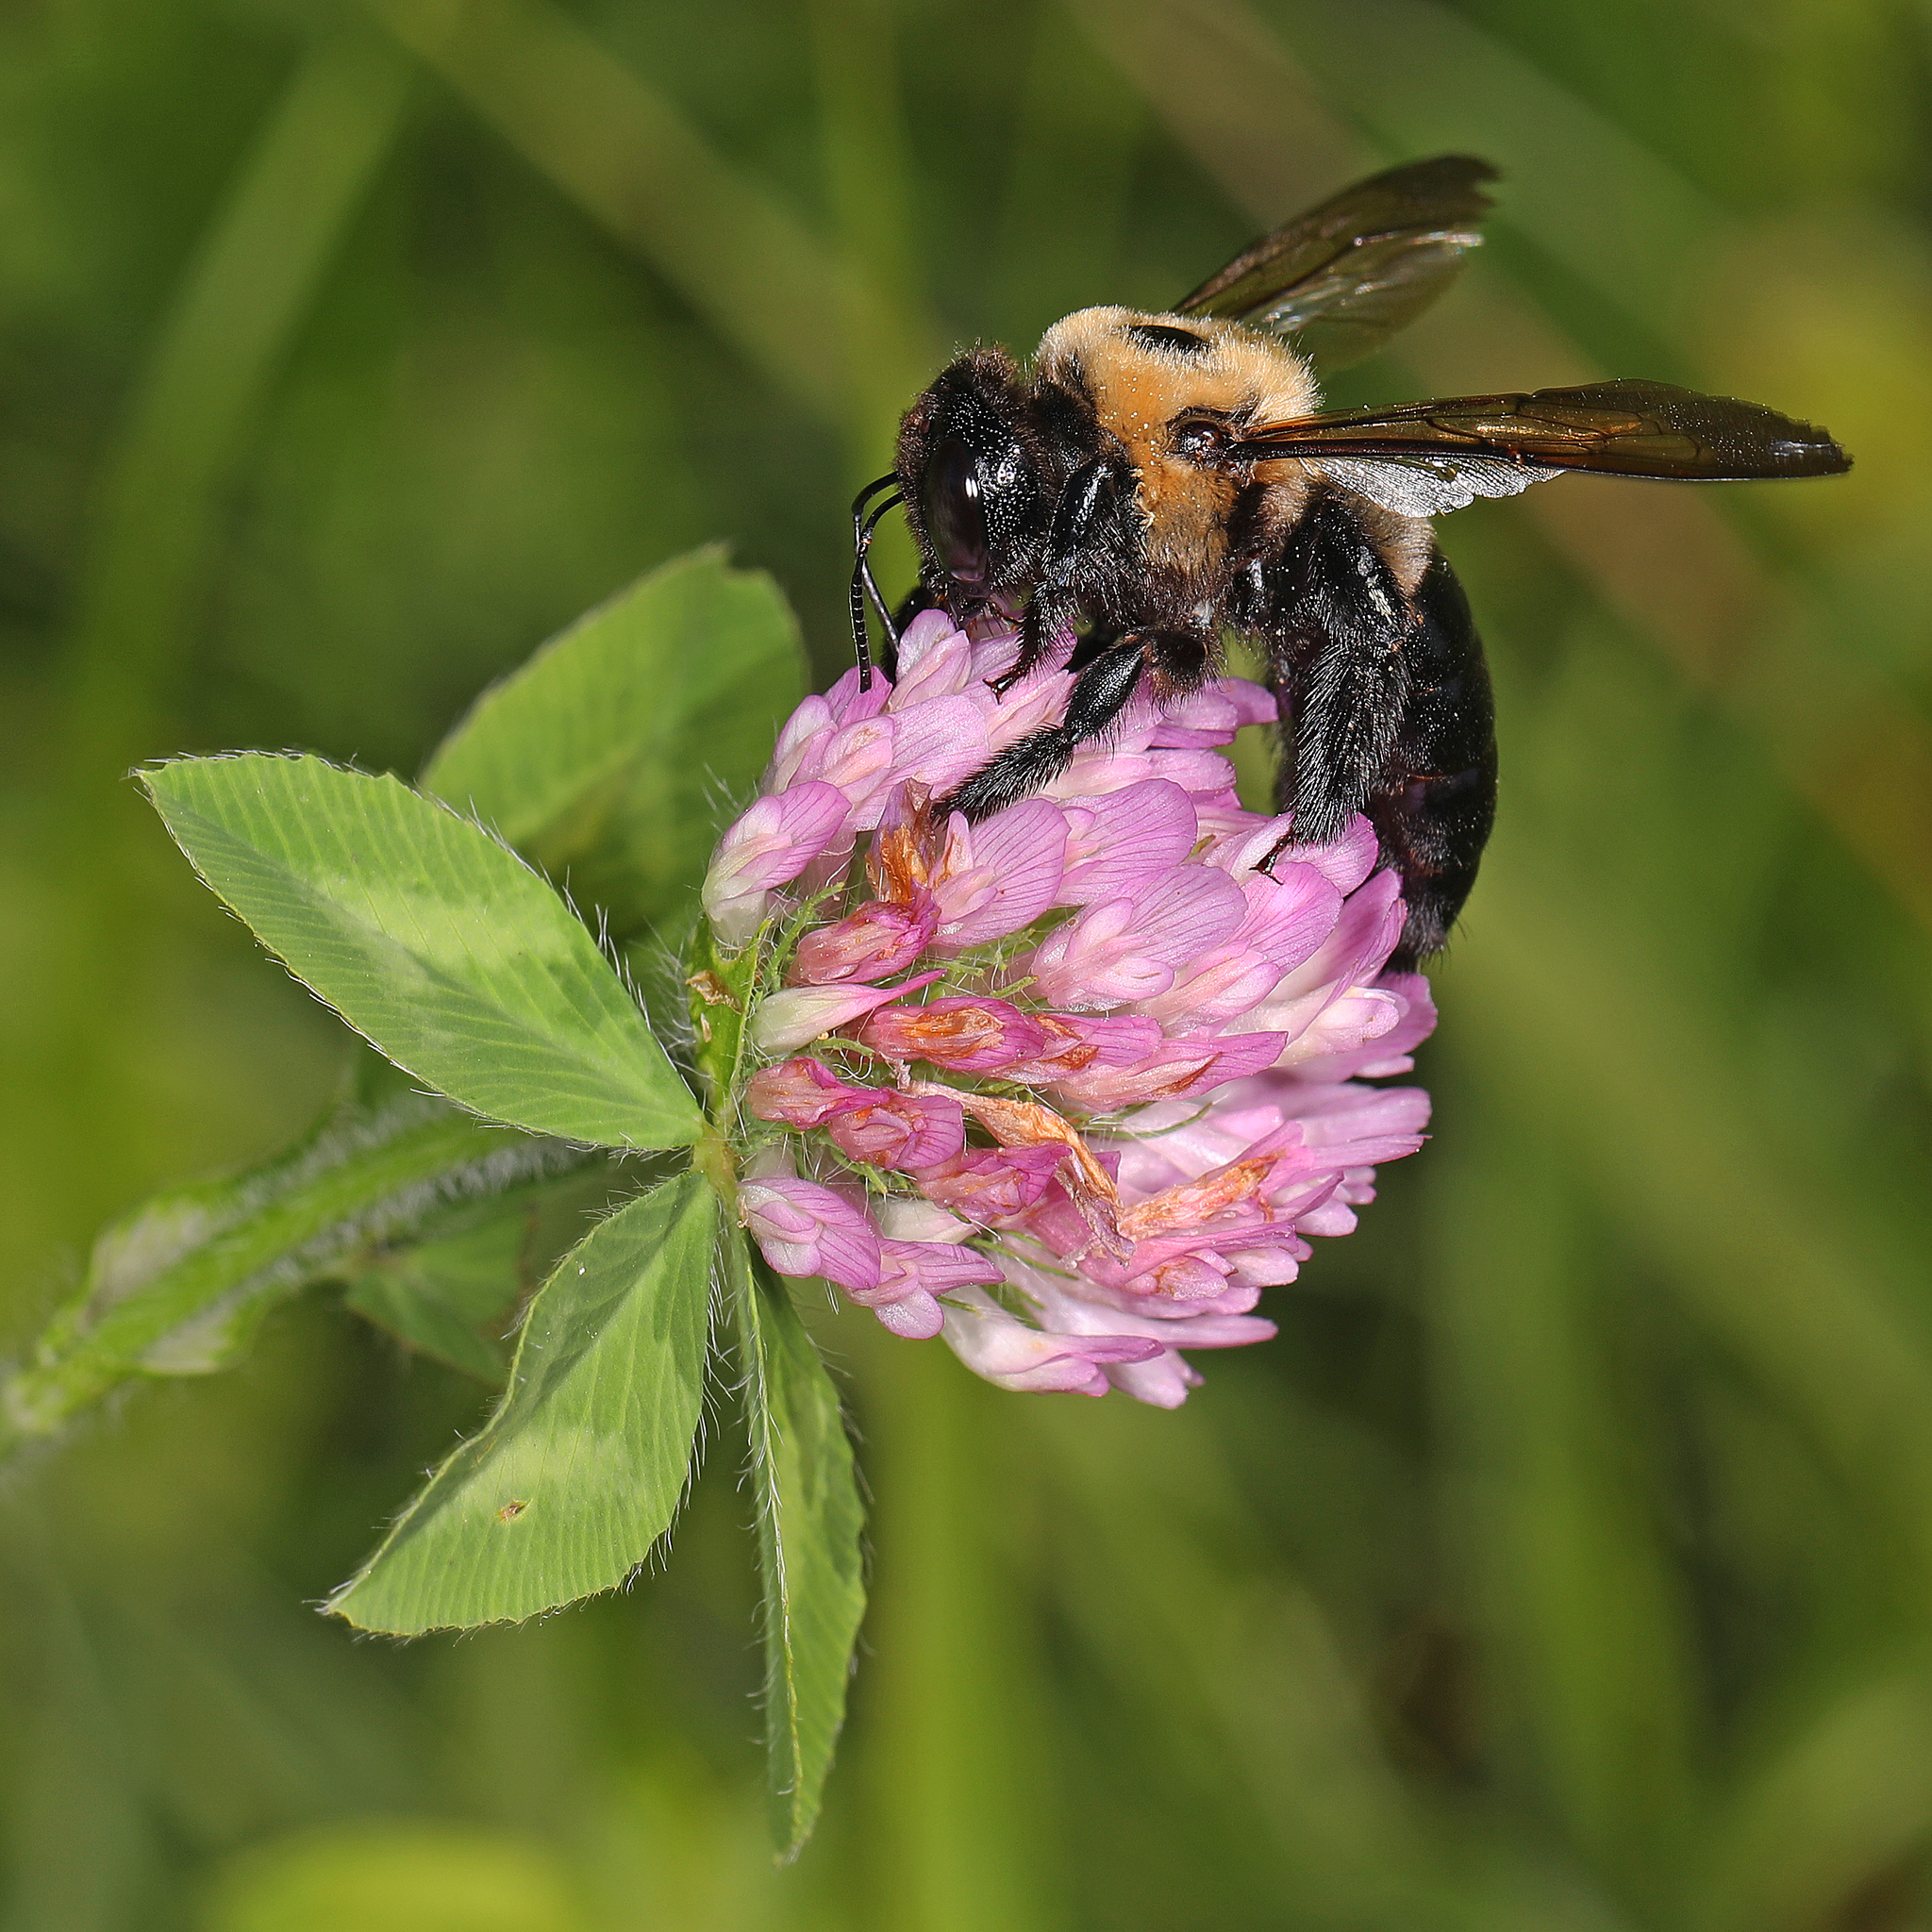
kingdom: Animalia
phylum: Arthropoda
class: Insecta
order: Hymenoptera
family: Apidae
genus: Xylocopa
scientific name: Xylocopa virginica
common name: Carpenter bee
